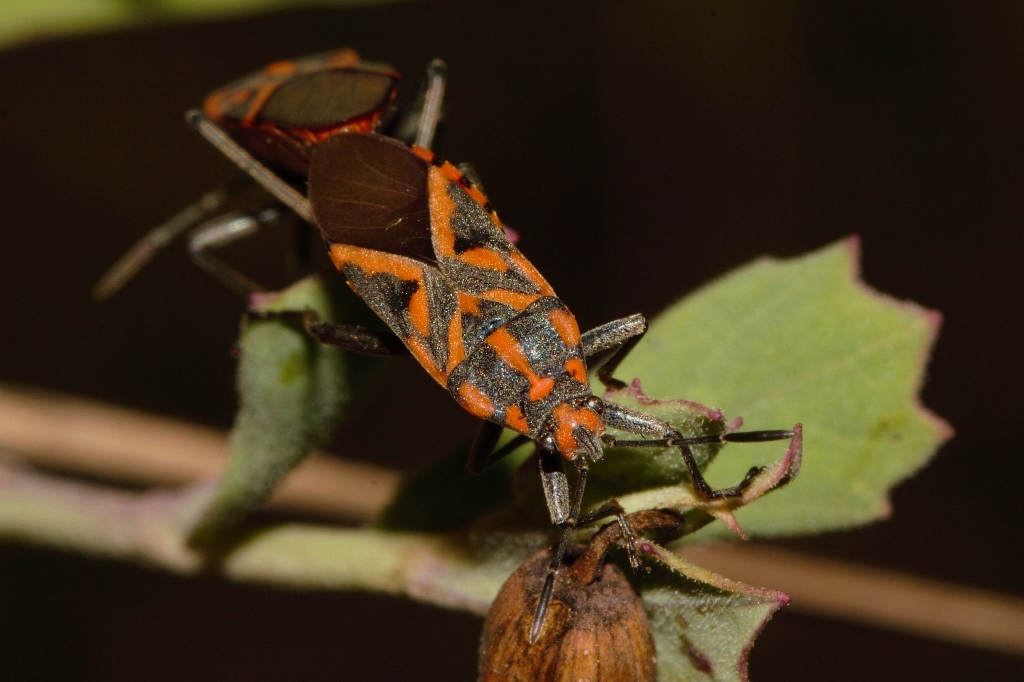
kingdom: Animalia
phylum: Arthropoda
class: Insecta
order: Hemiptera
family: Lygaeidae
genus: Spilostethus
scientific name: Spilostethus furcula
